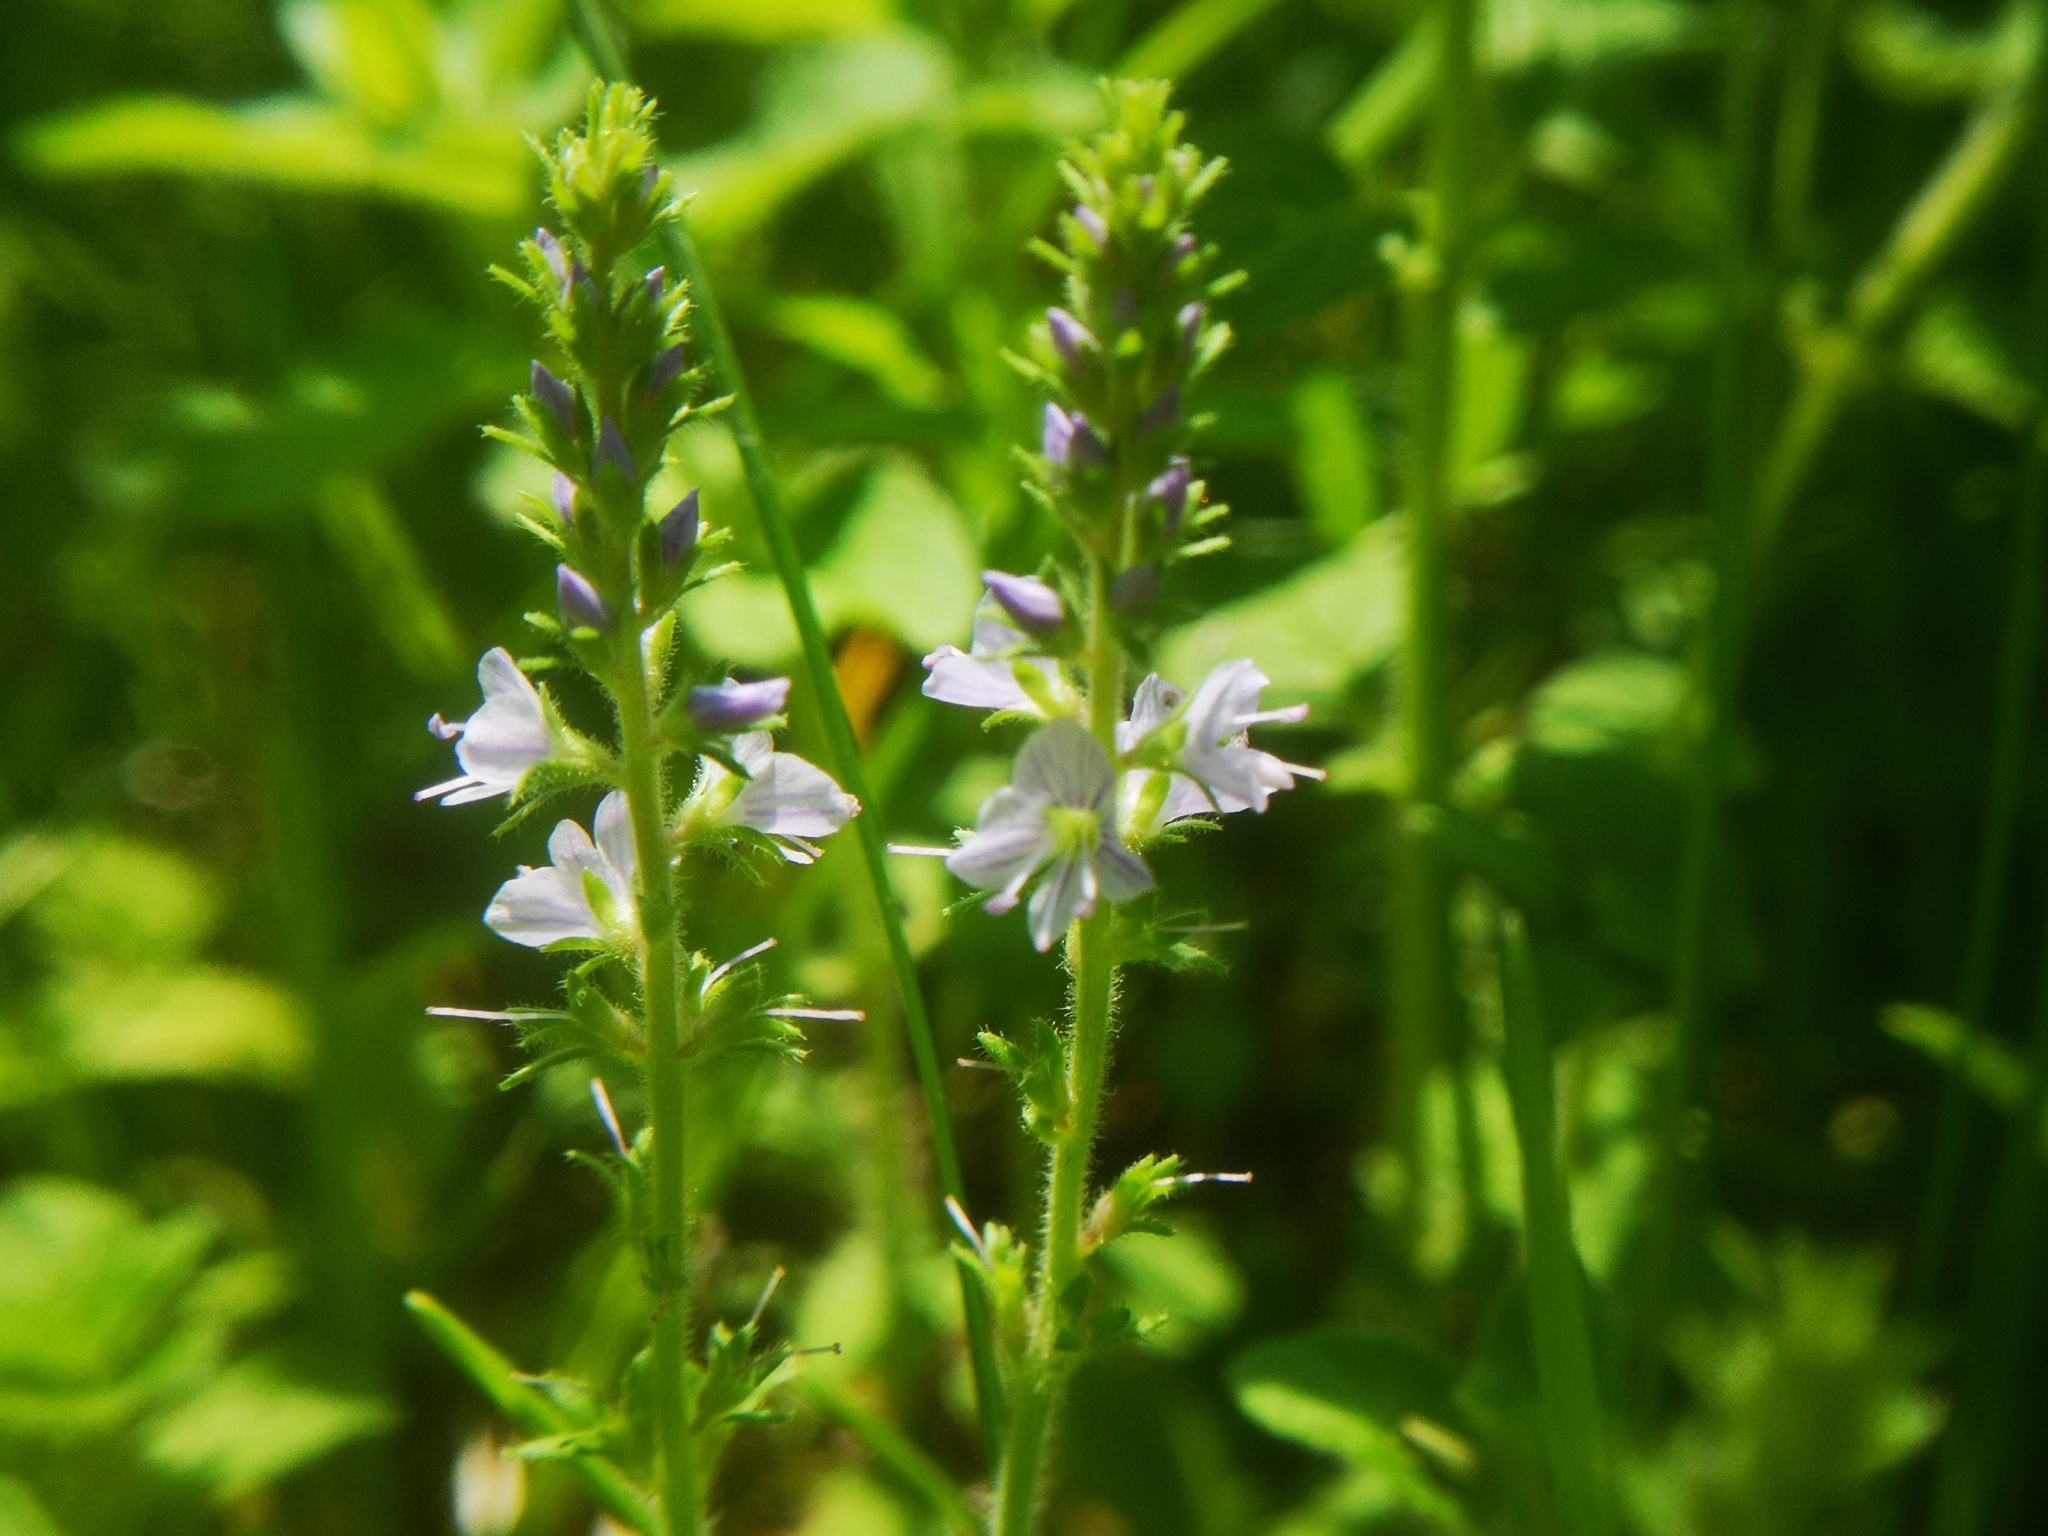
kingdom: Plantae
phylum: Tracheophyta
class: Magnoliopsida
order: Lamiales
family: Plantaginaceae
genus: Veronica
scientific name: Veronica officinalis
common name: Common speedwell
